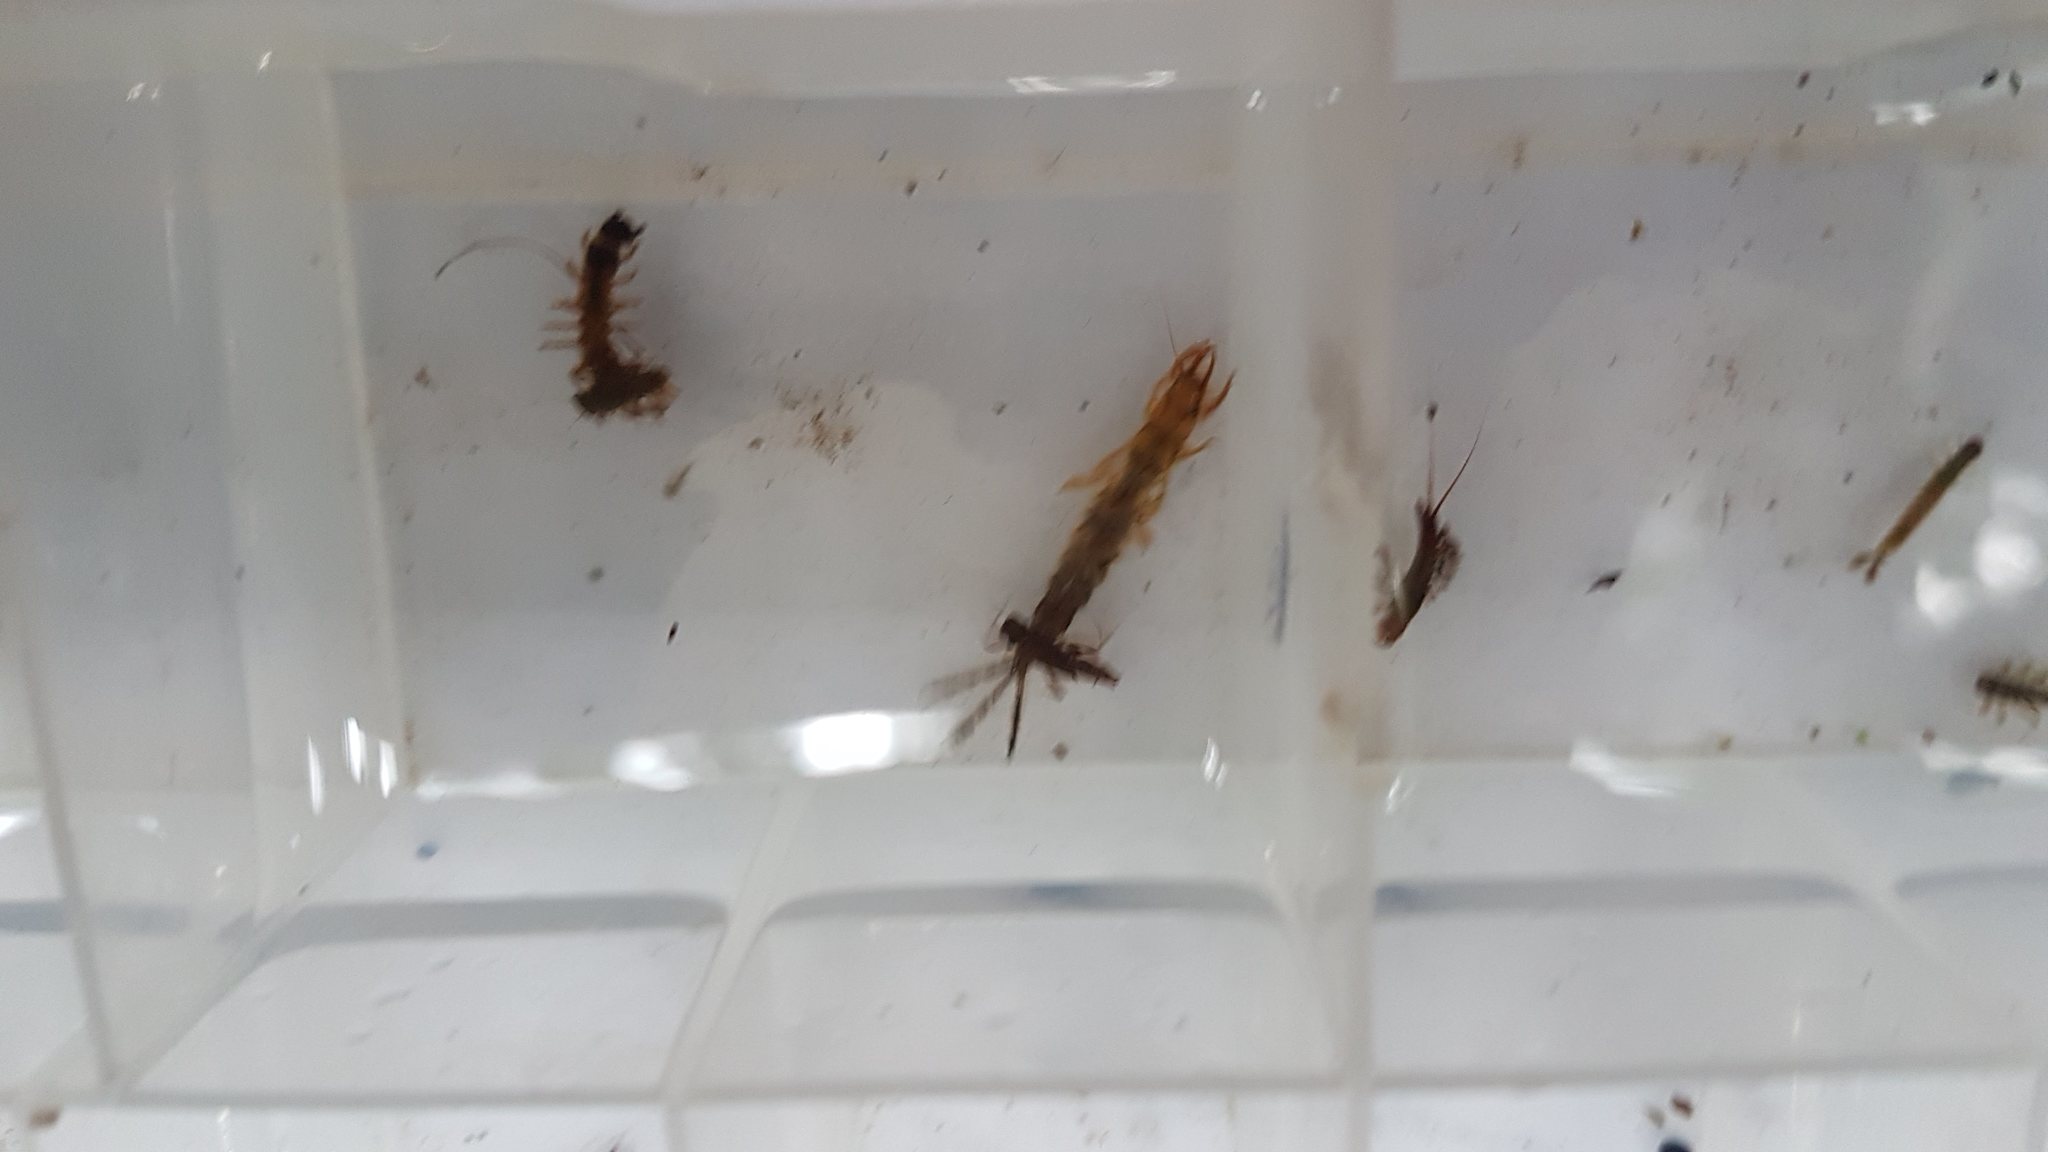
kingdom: Animalia
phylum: Arthropoda
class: Insecta
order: Ephemeroptera
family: Ichthybotidae
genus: Ichthybotus
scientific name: Ichthybotus hudsoni
